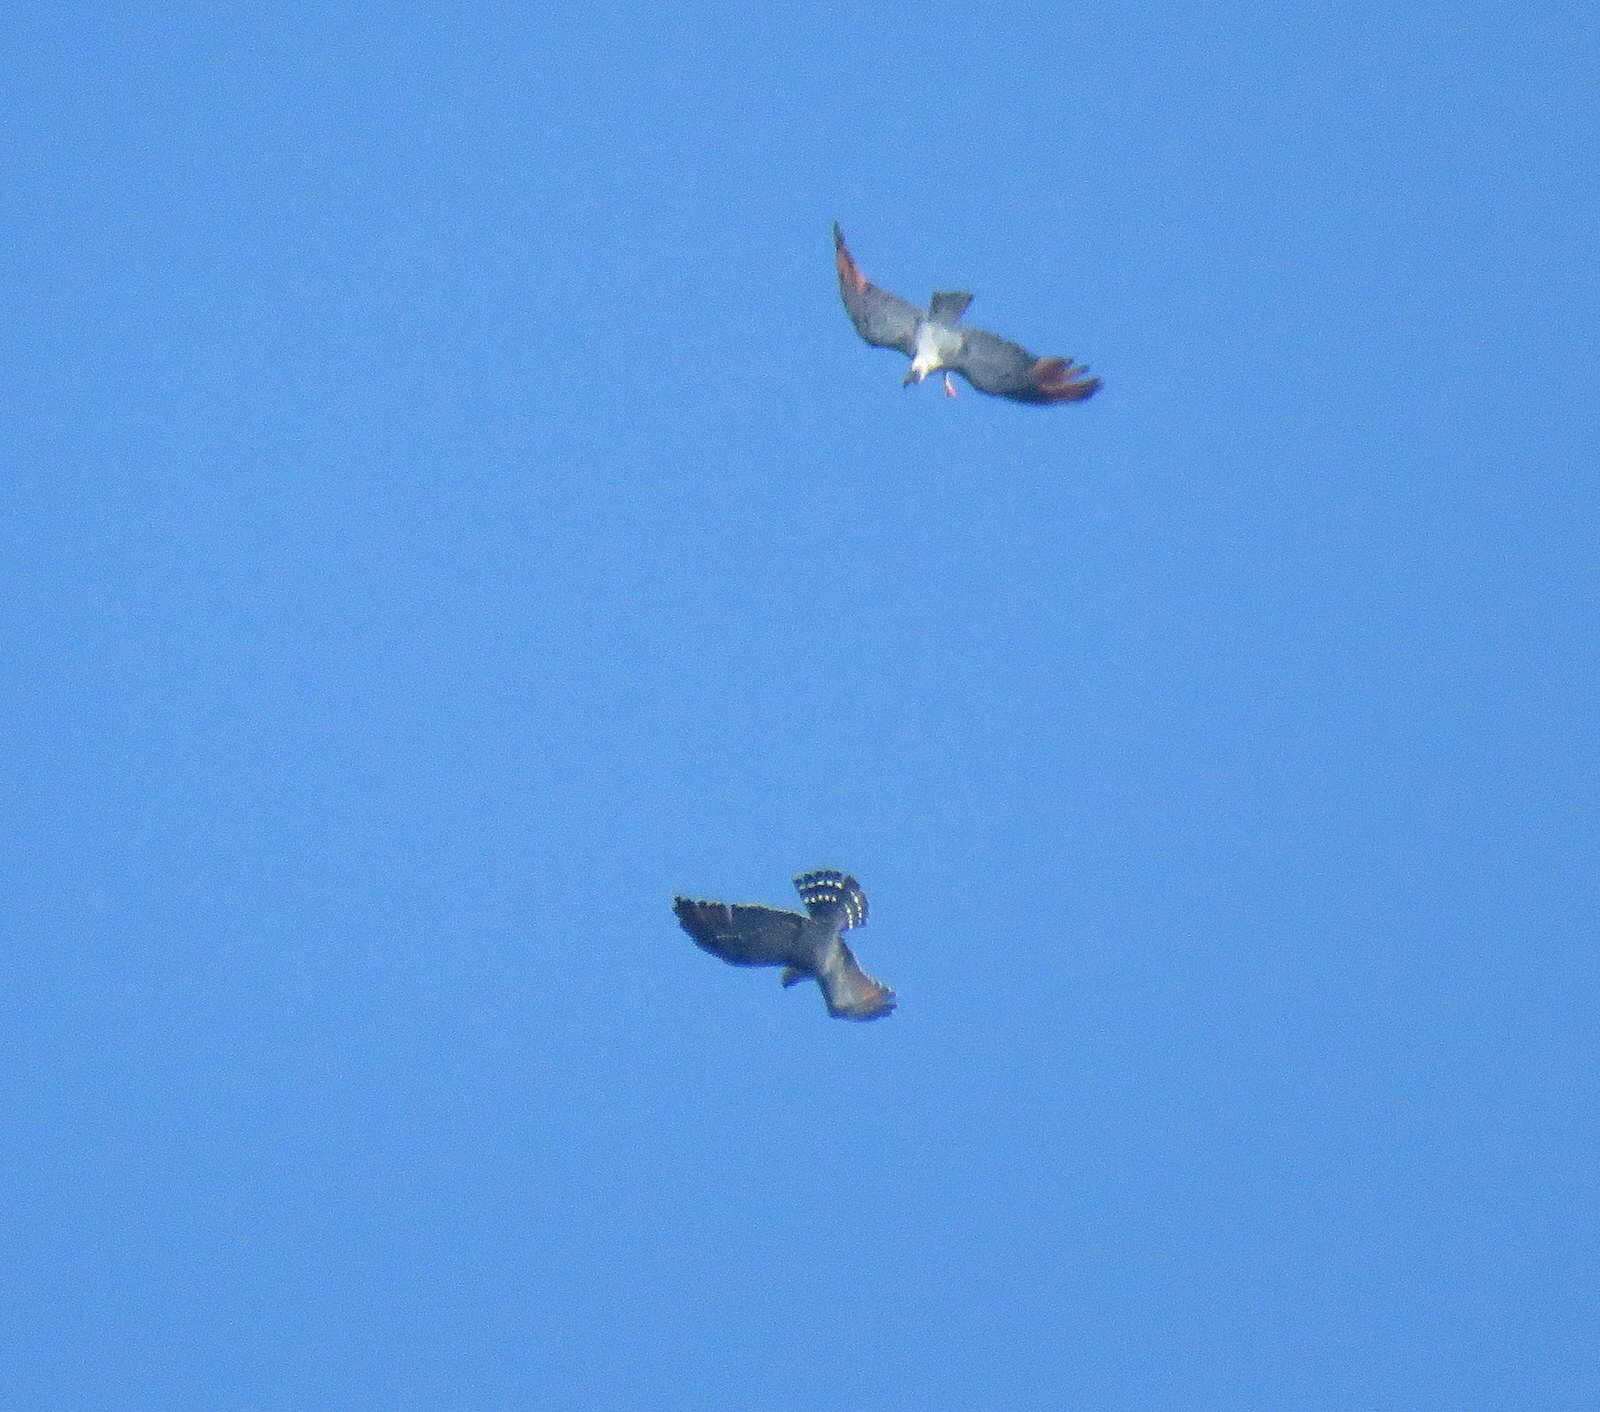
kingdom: Animalia
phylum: Chordata
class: Aves
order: Accipitriformes
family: Accipitridae
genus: Ictinia
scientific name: Ictinia plumbea
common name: Plumbeous kite
